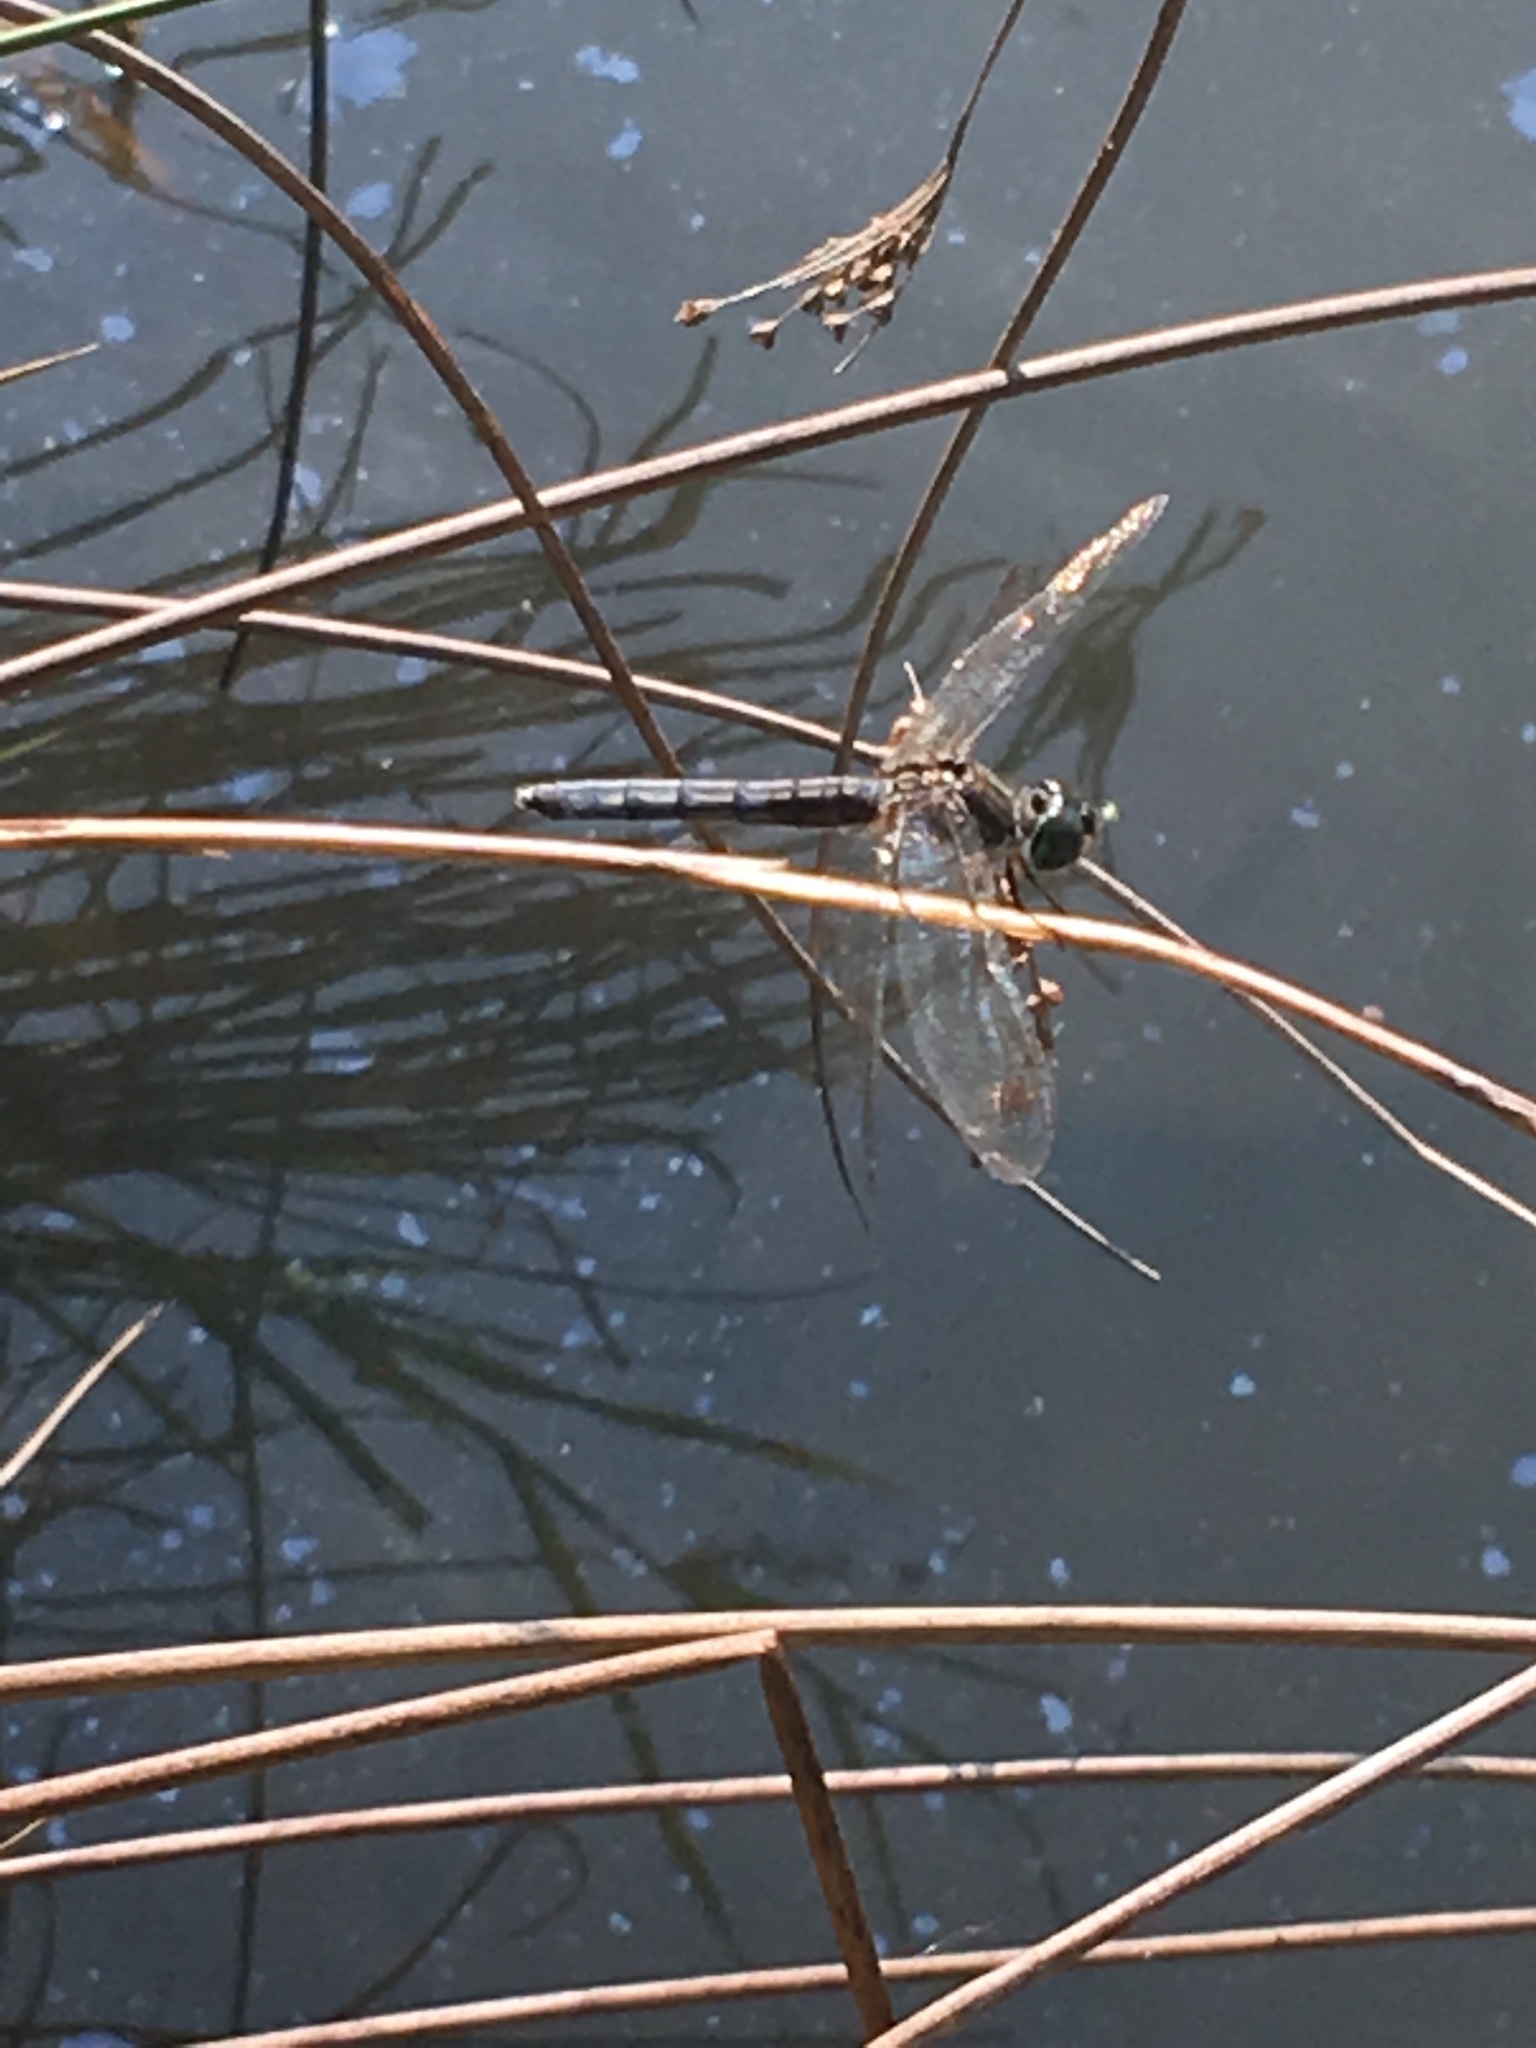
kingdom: Animalia
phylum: Arthropoda
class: Insecta
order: Odonata
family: Libellulidae
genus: Pachydiplax
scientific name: Pachydiplax longipennis
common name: Blue dasher
